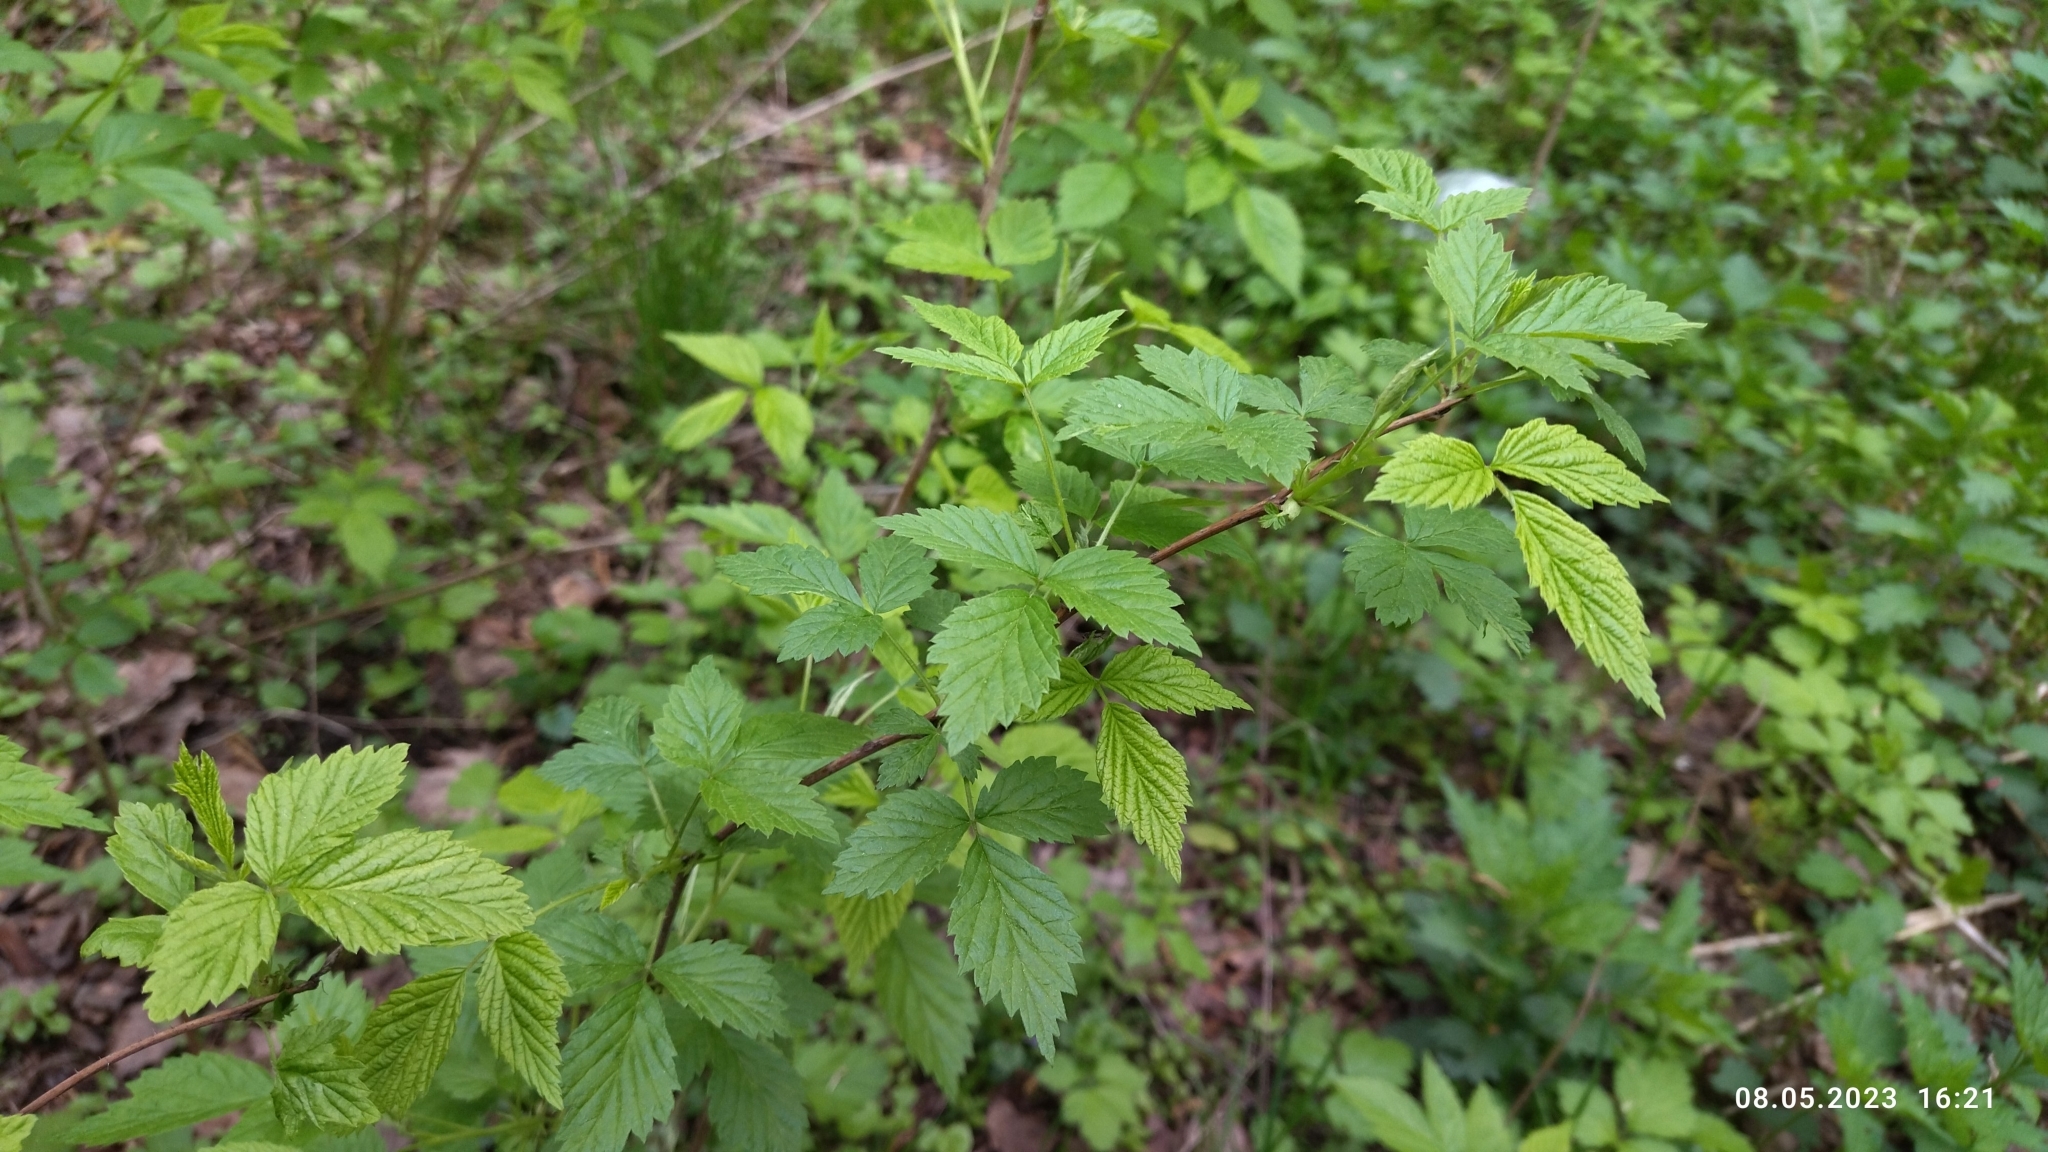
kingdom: Plantae
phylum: Tracheophyta
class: Magnoliopsida
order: Rosales
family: Rosaceae
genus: Rubus
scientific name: Rubus idaeus
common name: Raspberry
